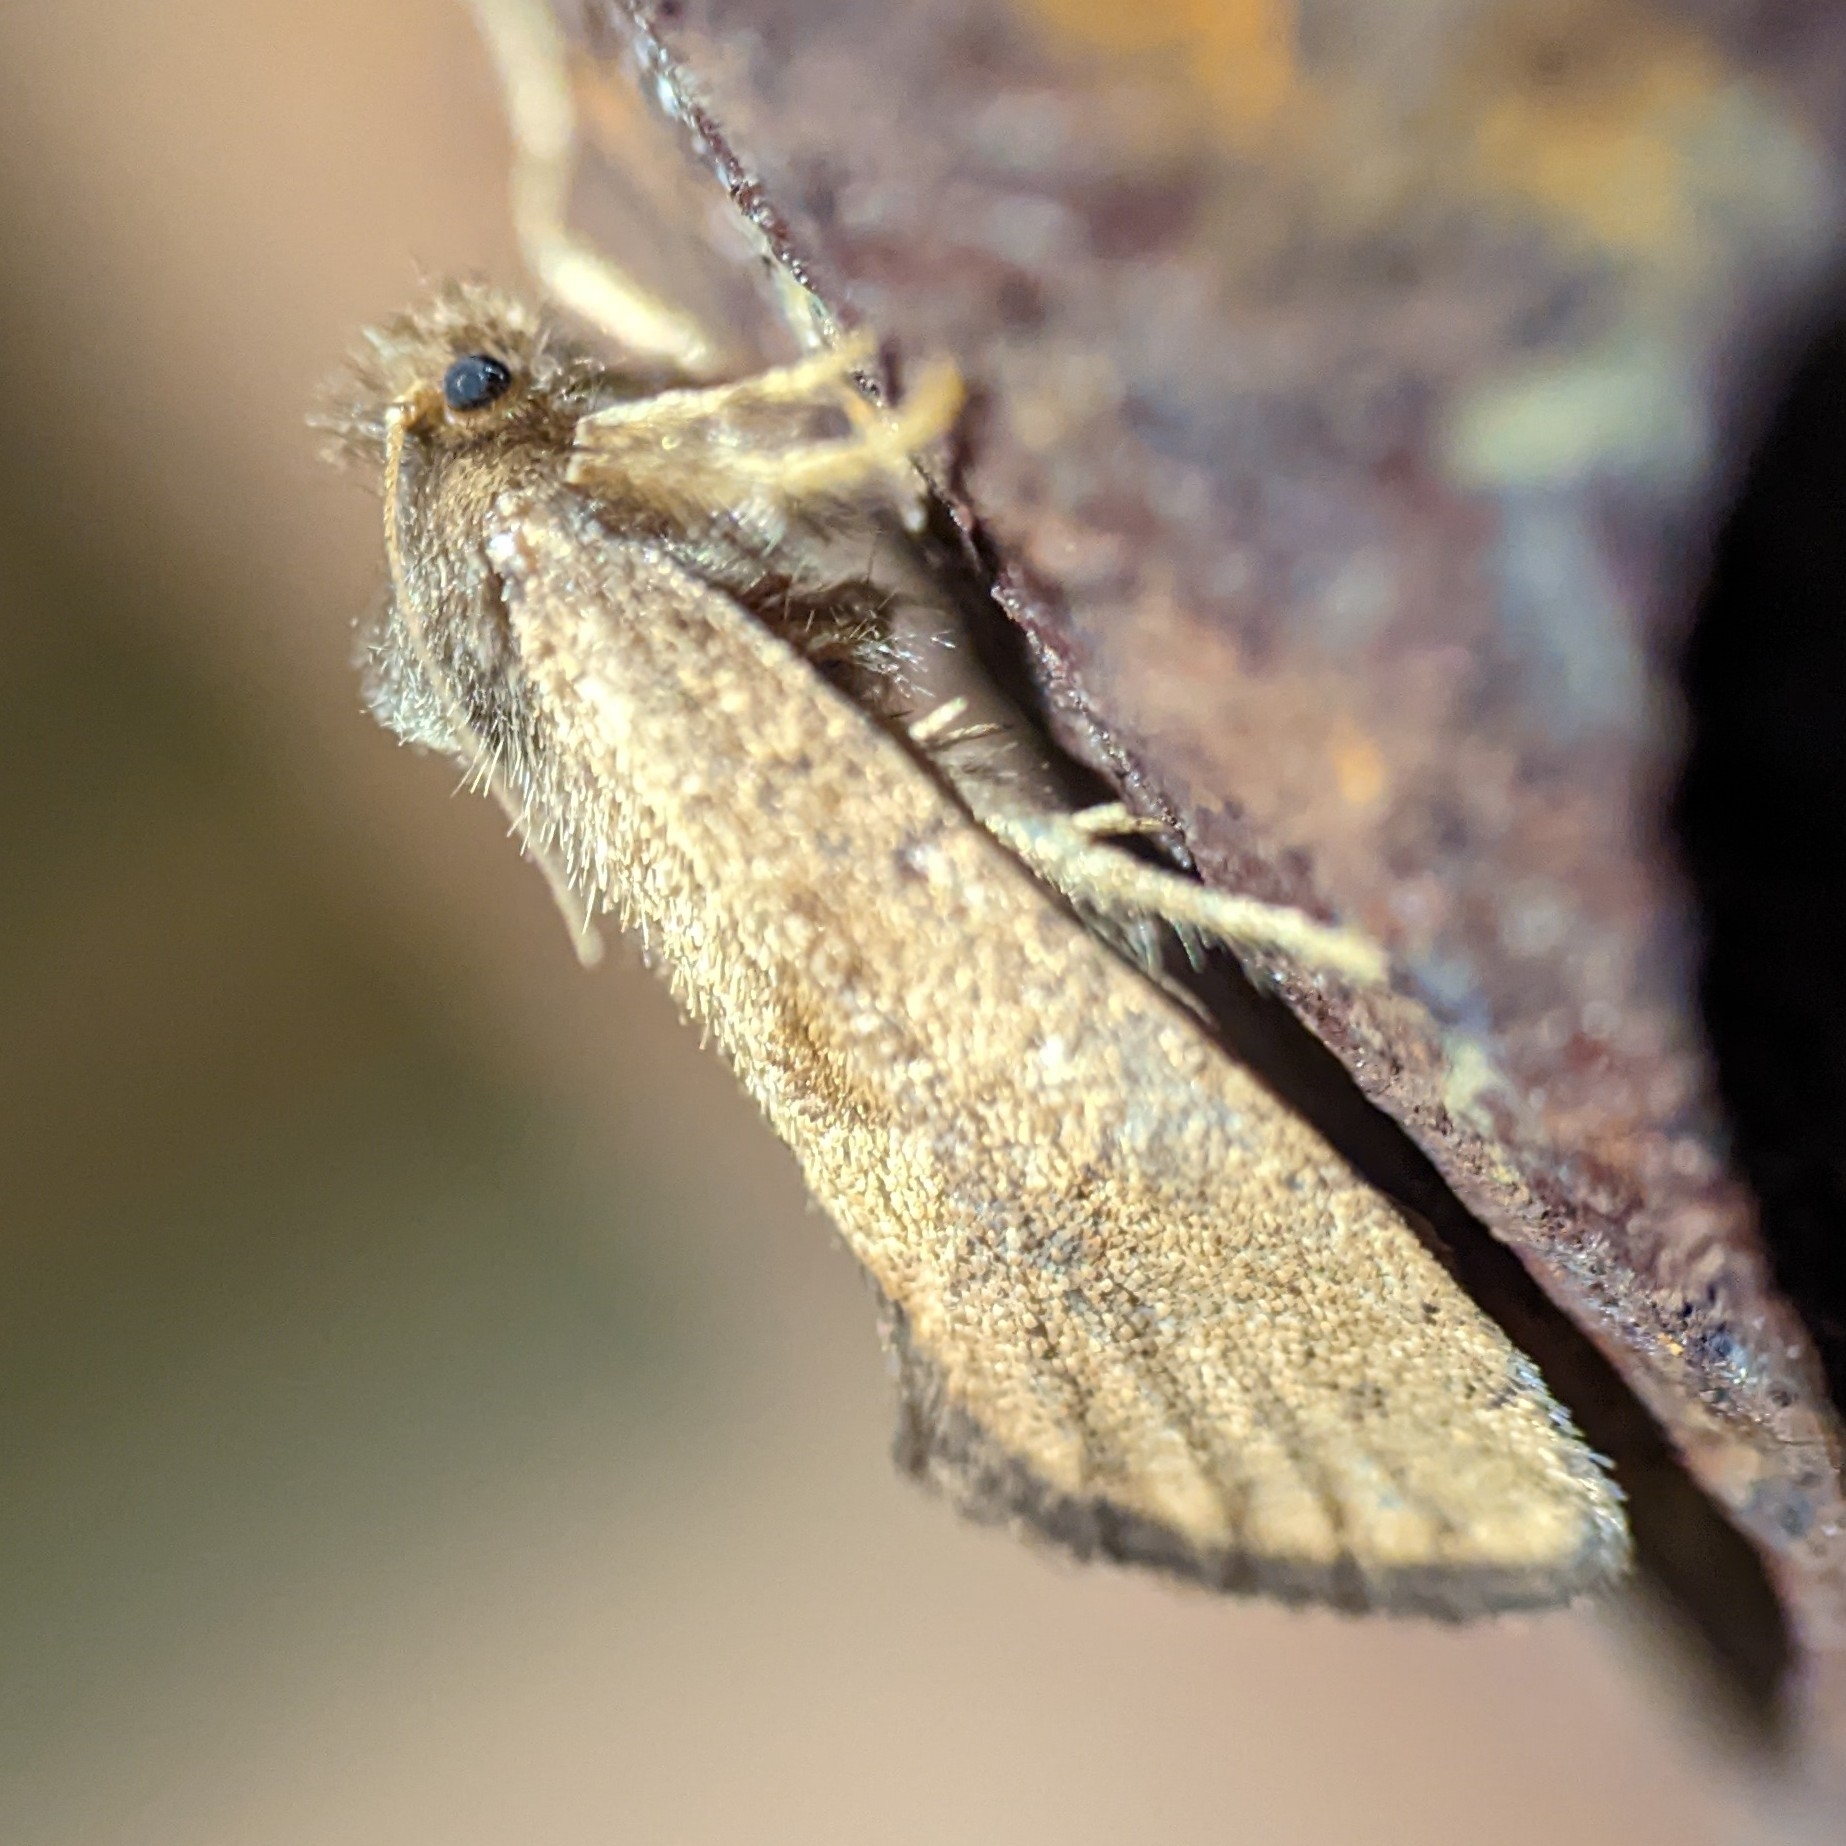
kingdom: Animalia
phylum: Arthropoda
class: Insecta
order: Lepidoptera
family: Tineidae
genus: Acrolophus
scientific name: Acrolophus mora
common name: Dark acrolophus
